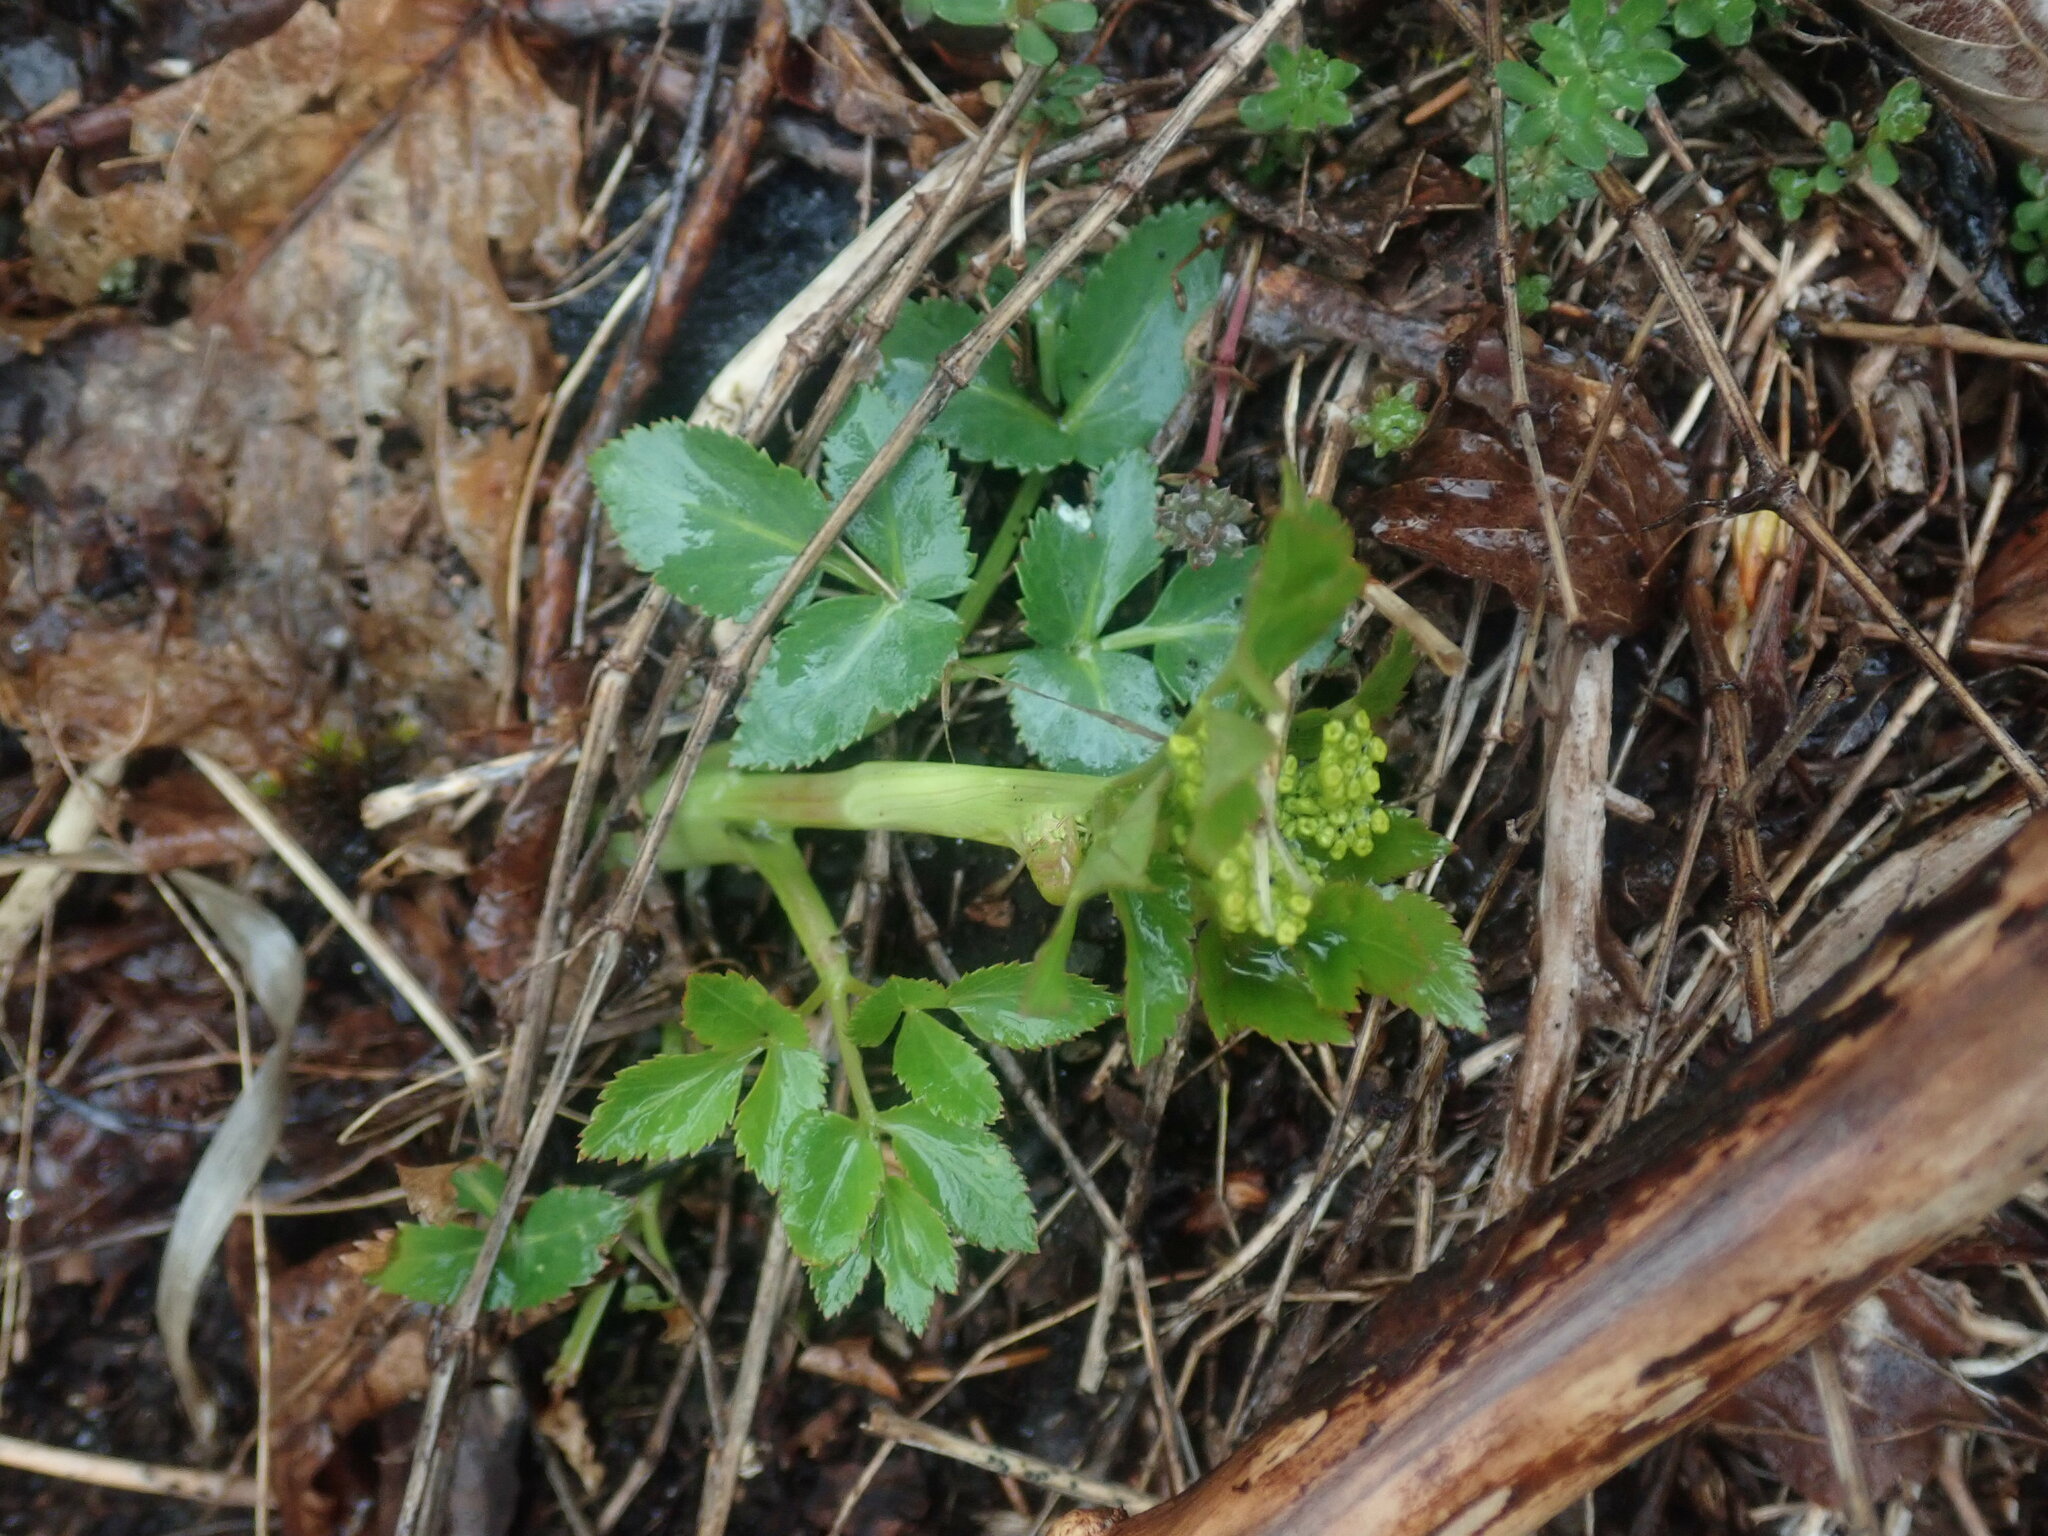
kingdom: Plantae
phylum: Tracheophyta
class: Magnoliopsida
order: Apiales
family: Apiaceae
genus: Zizia
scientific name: Zizia aurea
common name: Golden alexanders
